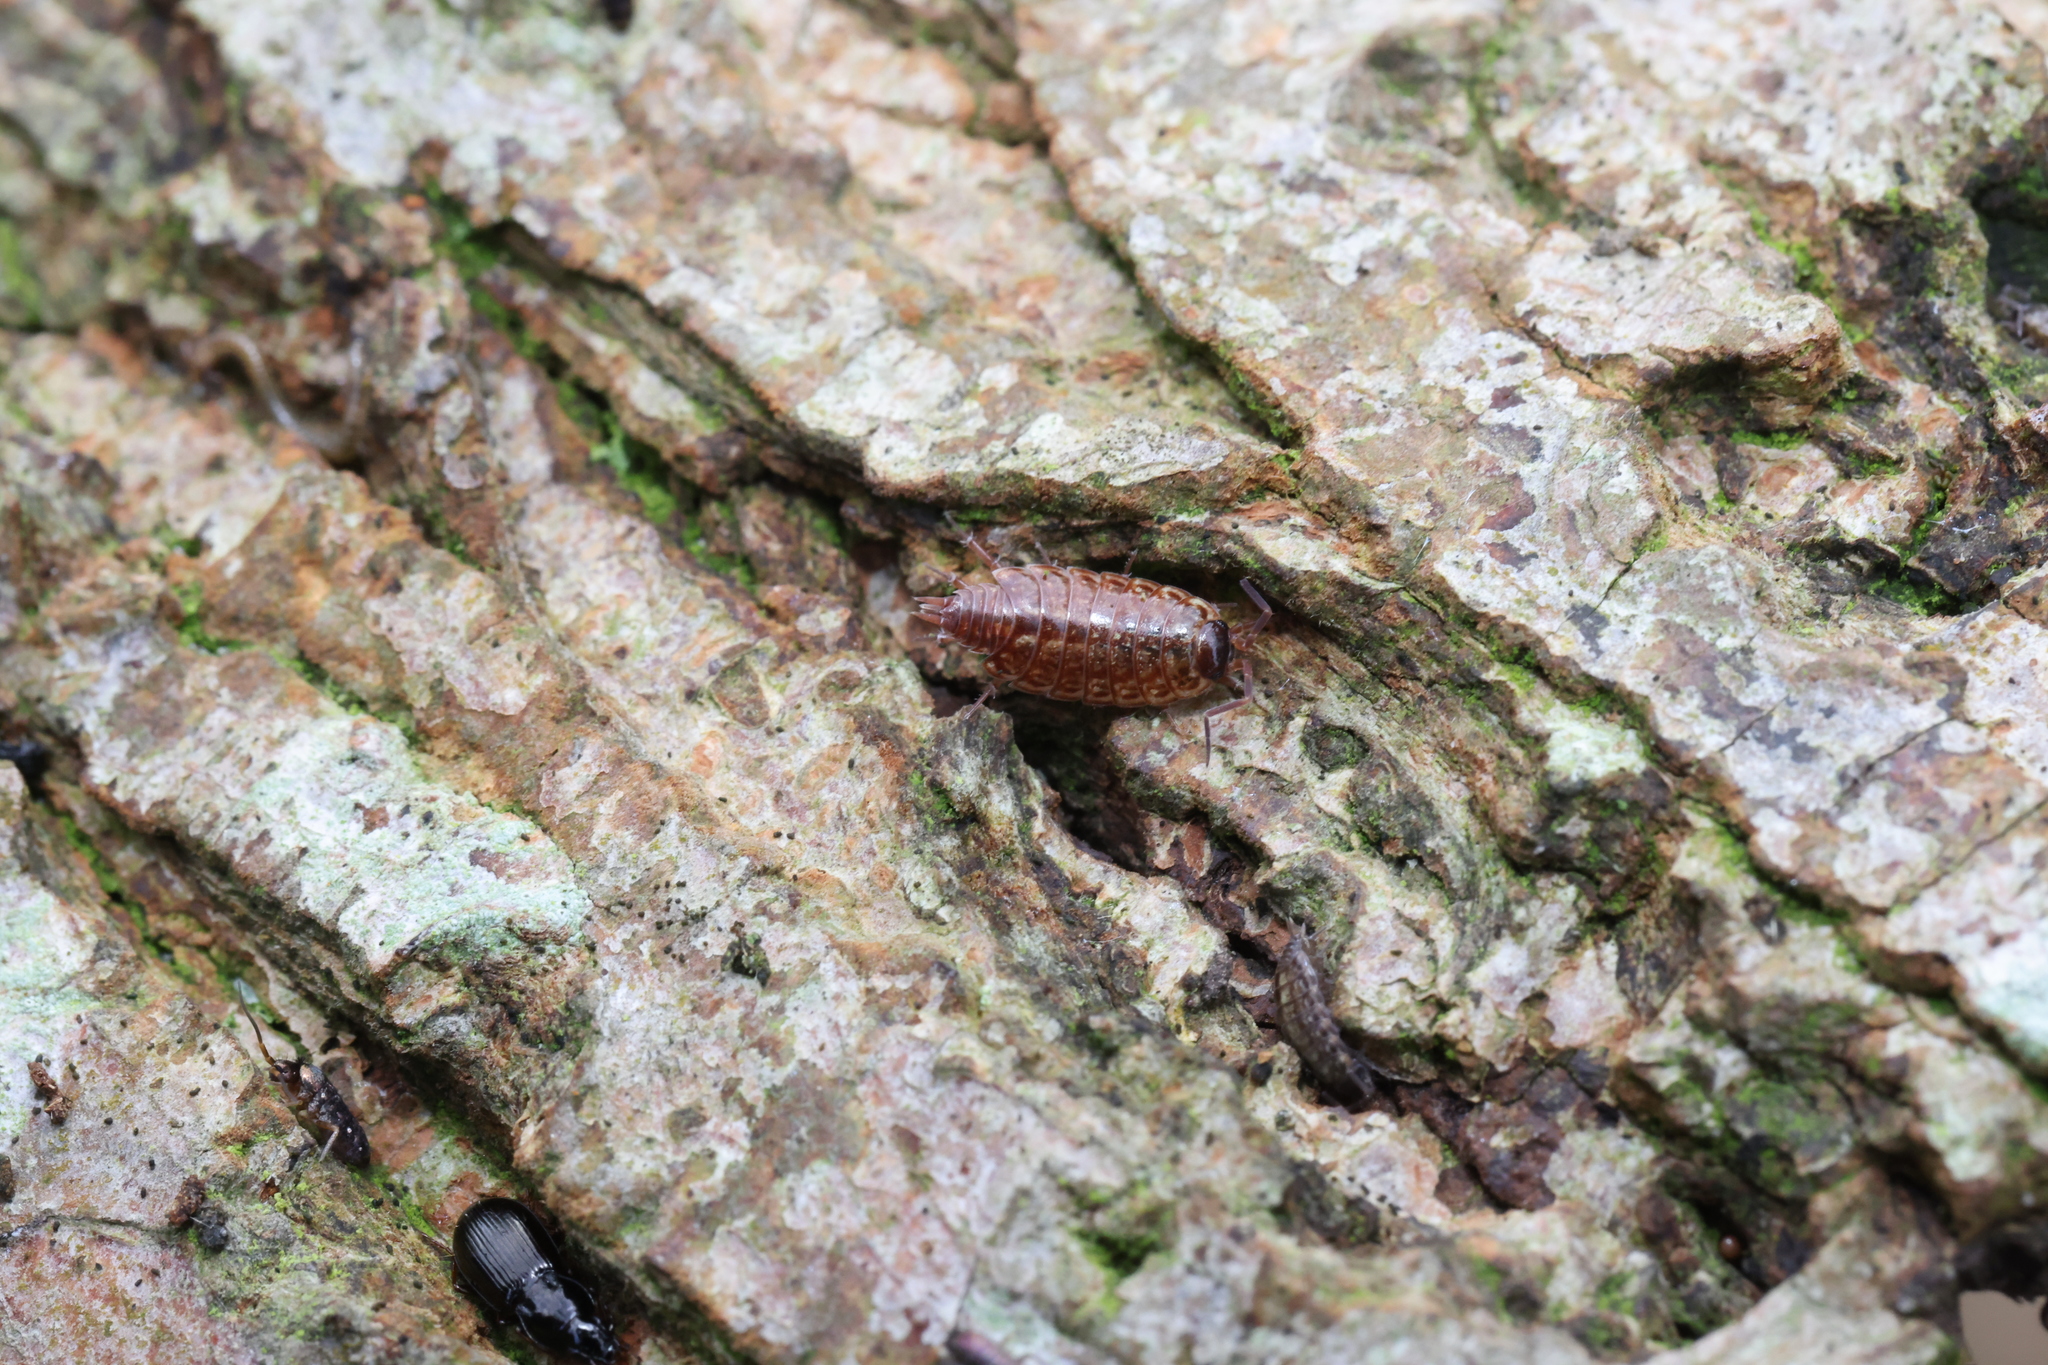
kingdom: Animalia
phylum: Arthropoda
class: Malacostraca
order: Isopoda
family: Philosciidae
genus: Philoscia
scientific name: Philoscia muscorum
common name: Common striped woodlouse
